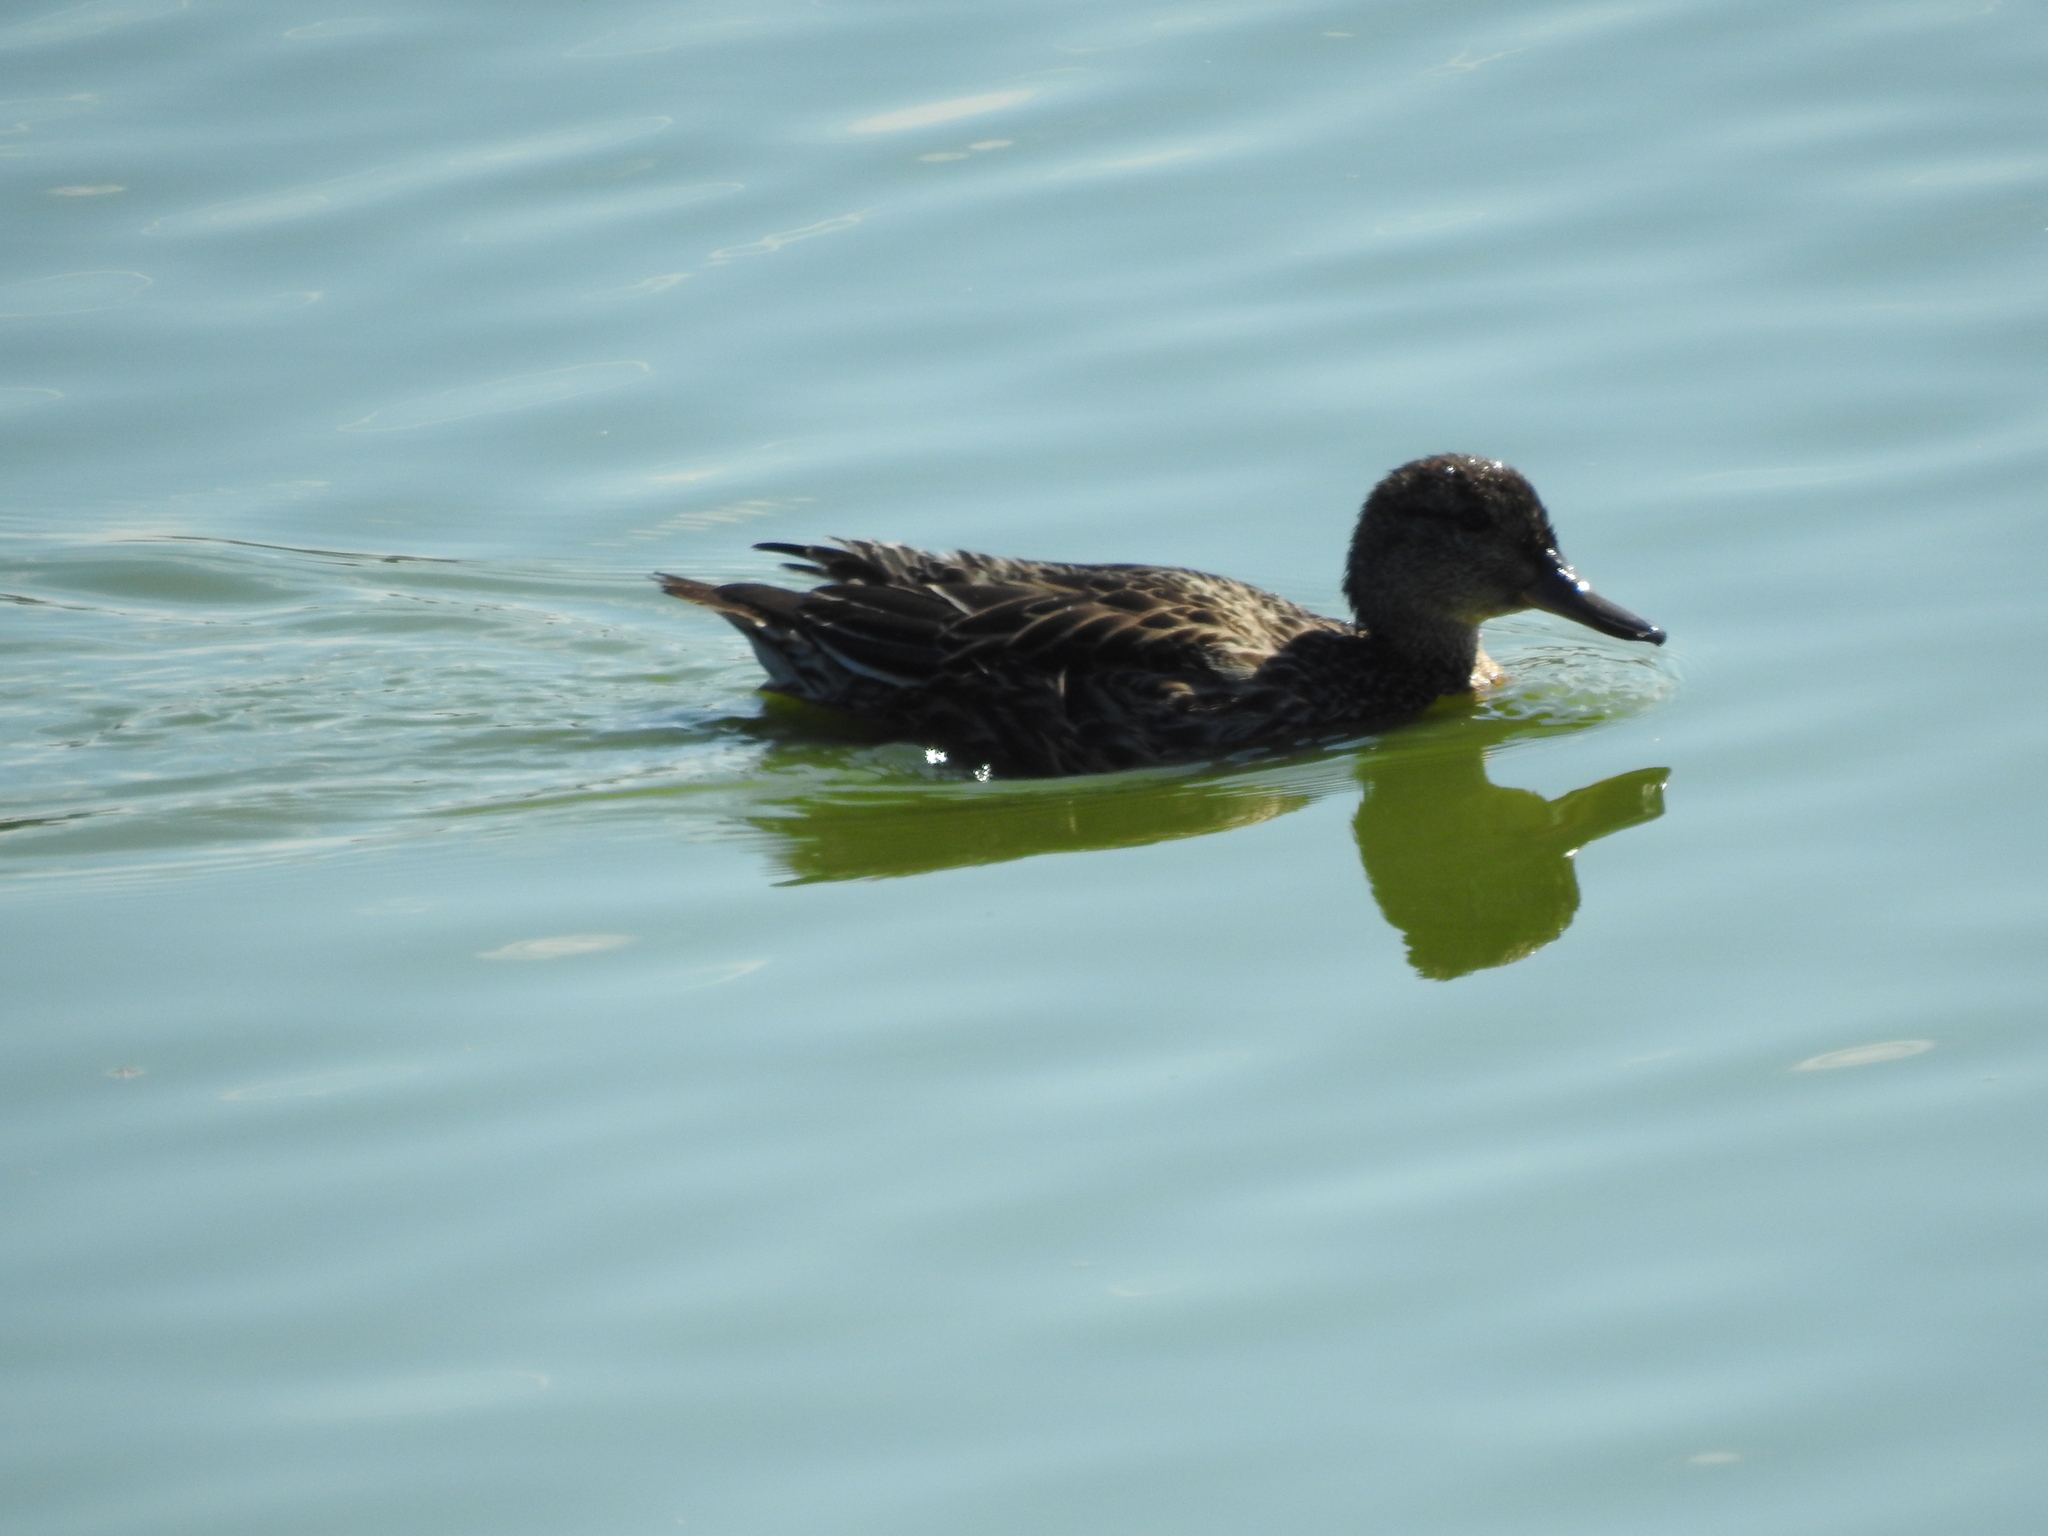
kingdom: Animalia
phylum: Chordata
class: Aves
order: Anseriformes
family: Anatidae
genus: Anas
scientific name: Anas crecca
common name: Eurasian teal
